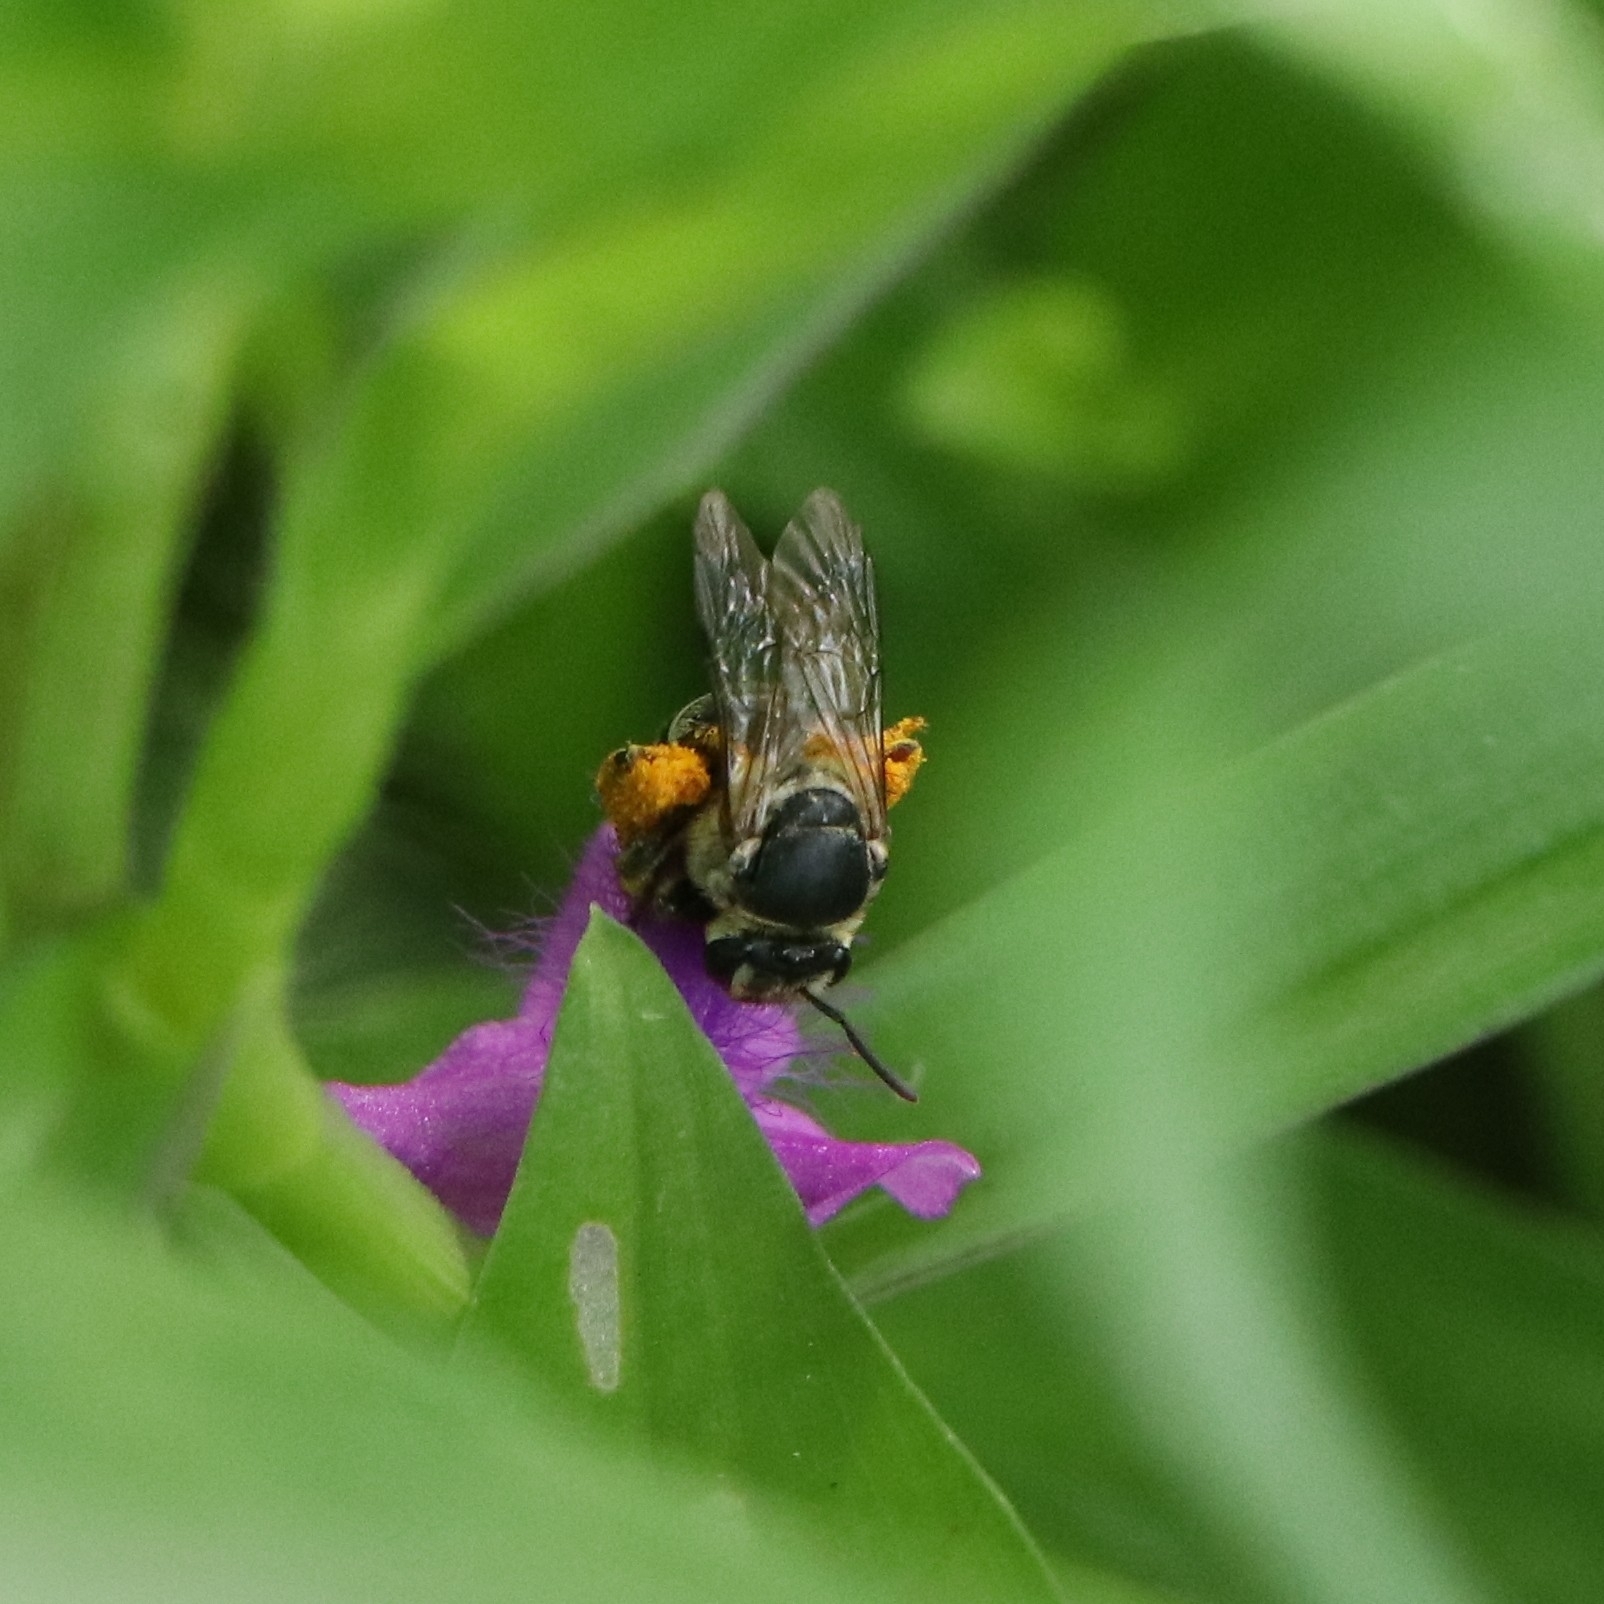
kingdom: Animalia
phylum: Arthropoda
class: Insecta
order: Hymenoptera
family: Halictidae
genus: Nomia
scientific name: Nomia westwoodi
